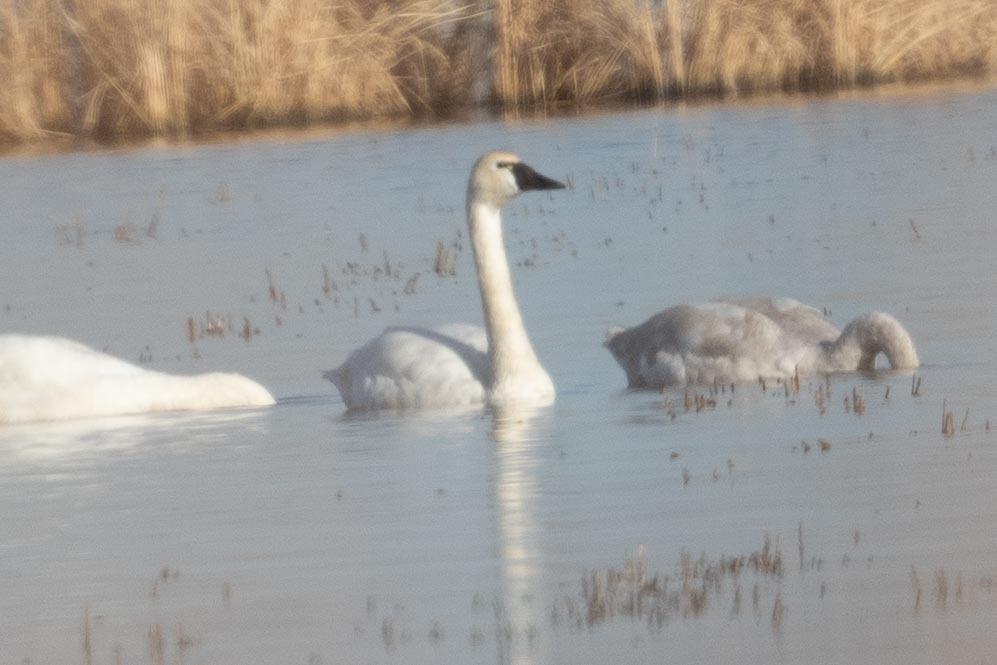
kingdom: Animalia
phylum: Chordata
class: Aves
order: Anseriformes
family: Anatidae
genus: Cygnus
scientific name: Cygnus columbianus
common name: Tundra swan
